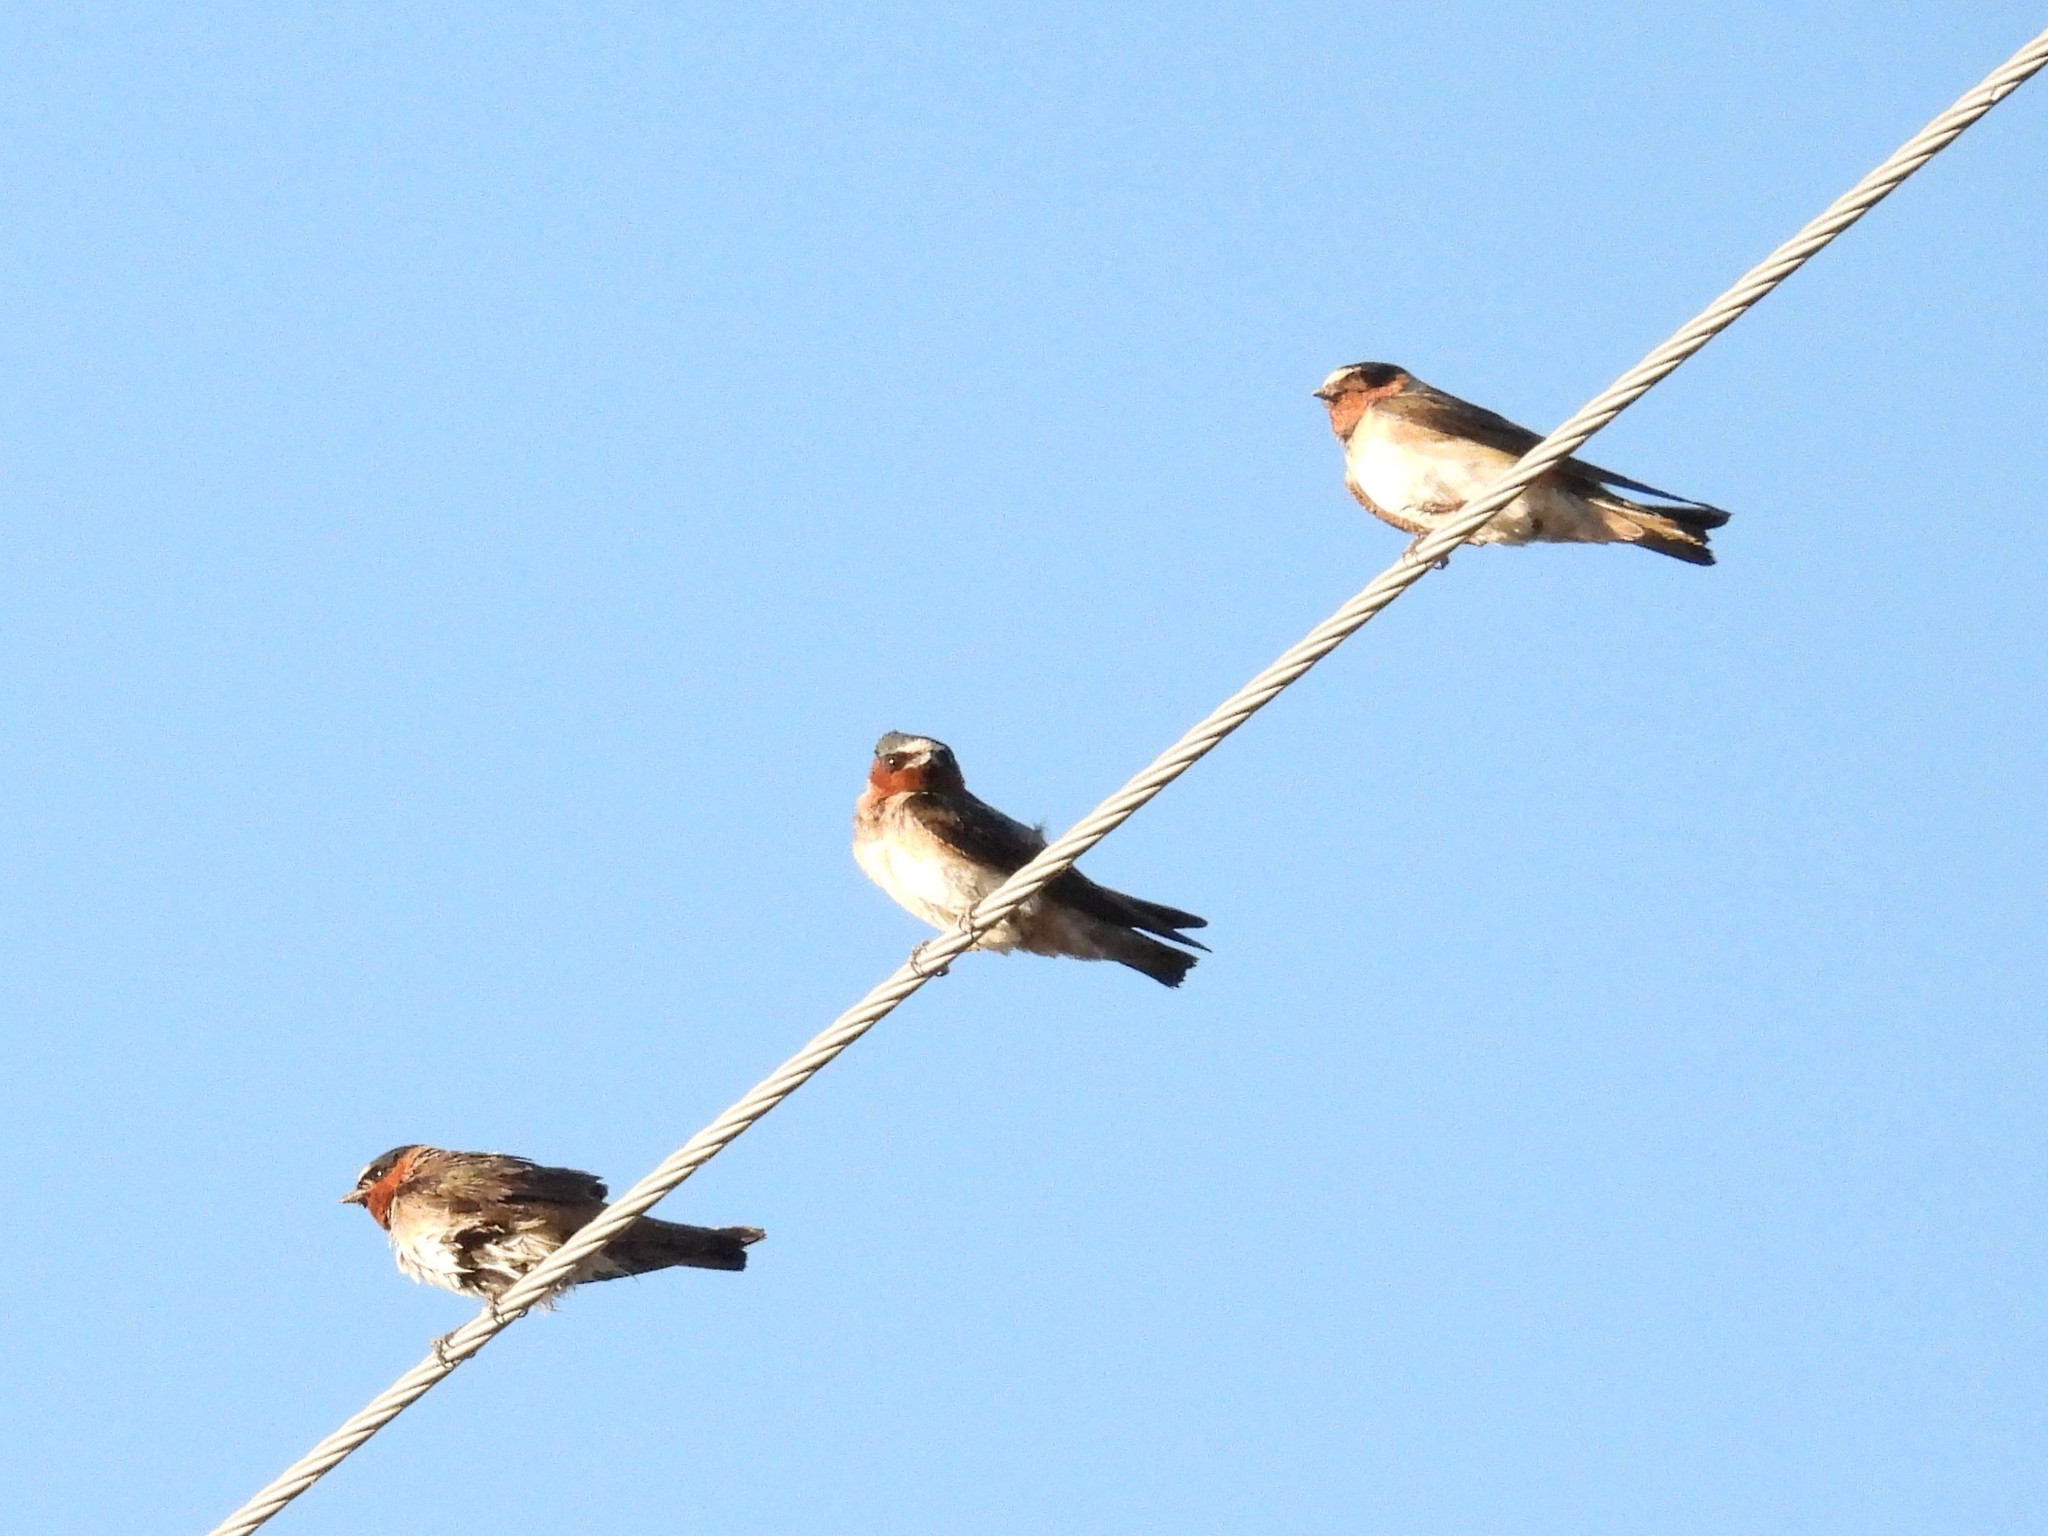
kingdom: Animalia
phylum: Chordata
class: Aves
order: Passeriformes
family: Hirundinidae
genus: Petrochelidon
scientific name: Petrochelidon pyrrhonota
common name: American cliff swallow
